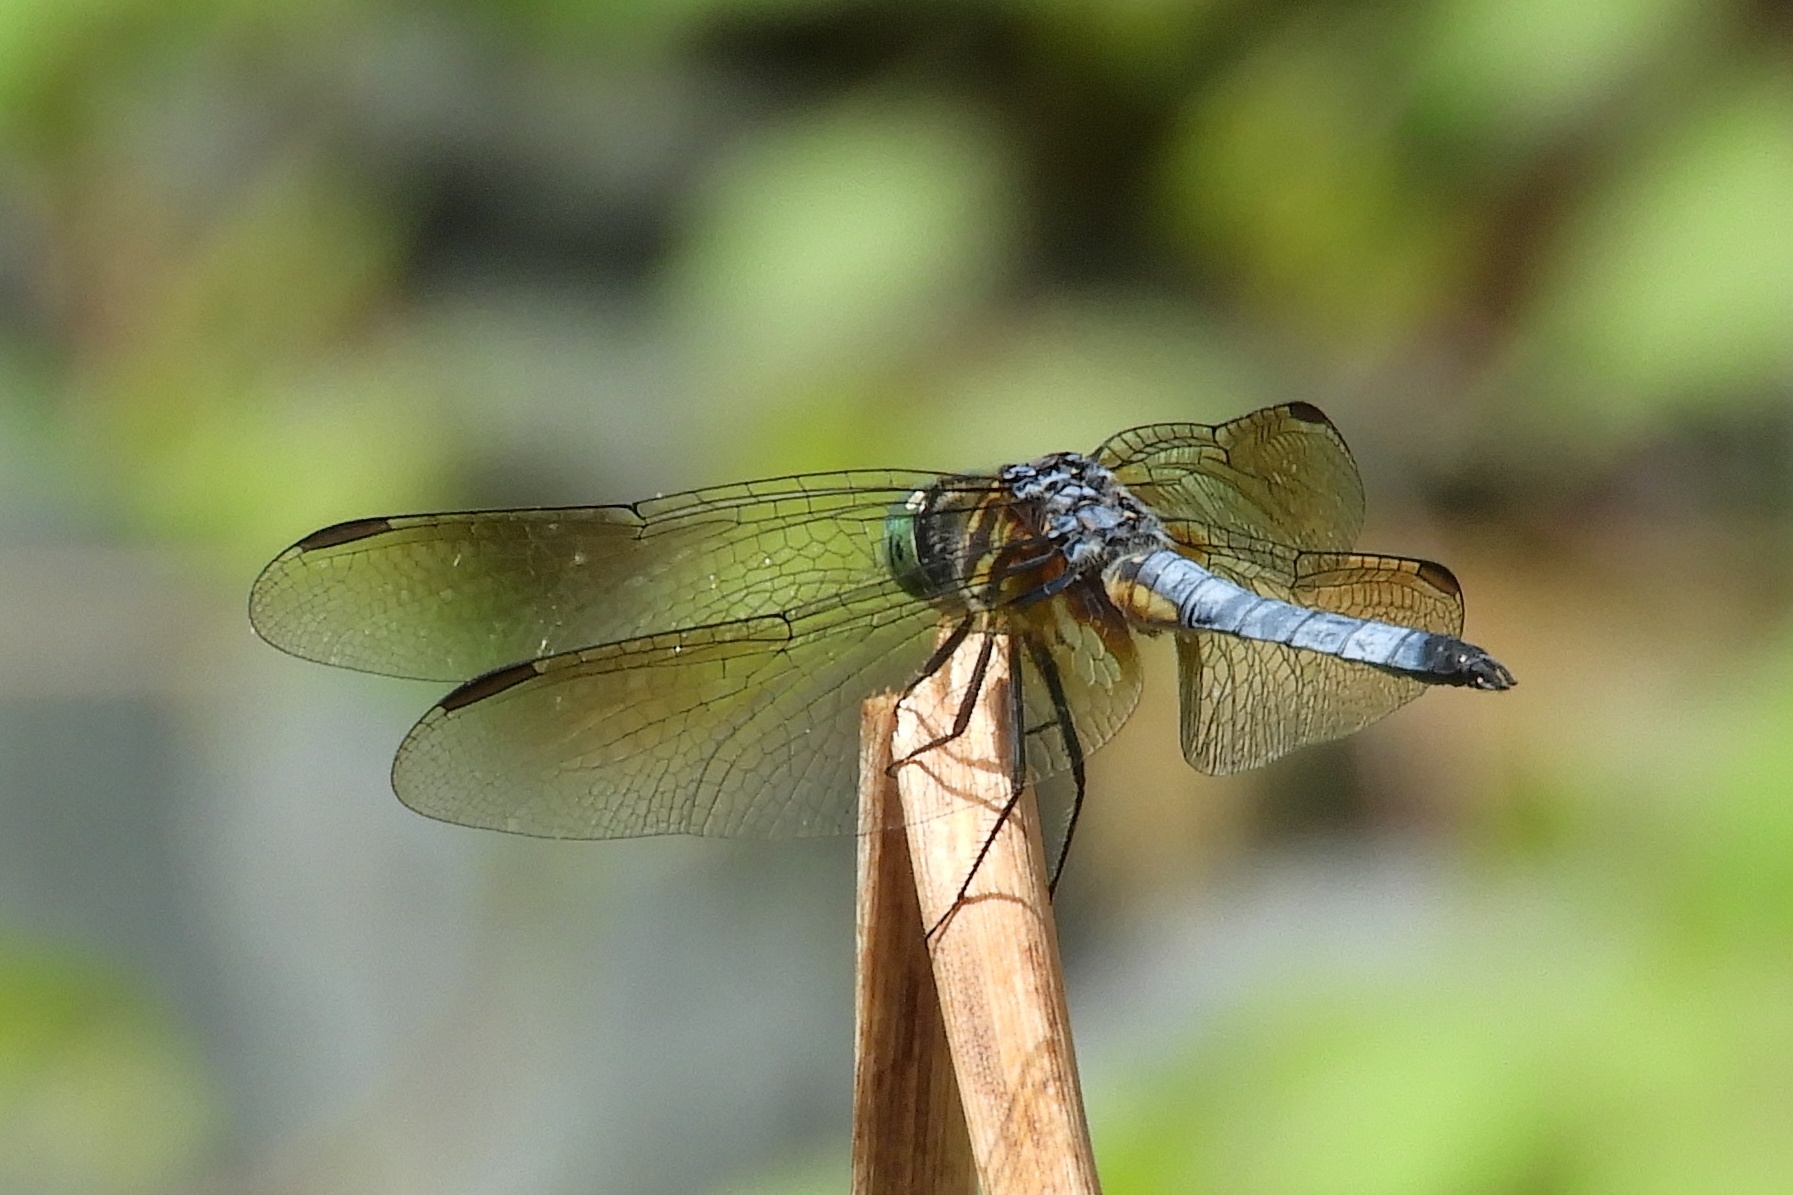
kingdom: Animalia
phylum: Arthropoda
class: Insecta
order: Odonata
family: Libellulidae
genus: Pachydiplax
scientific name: Pachydiplax longipennis
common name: Blue dasher
